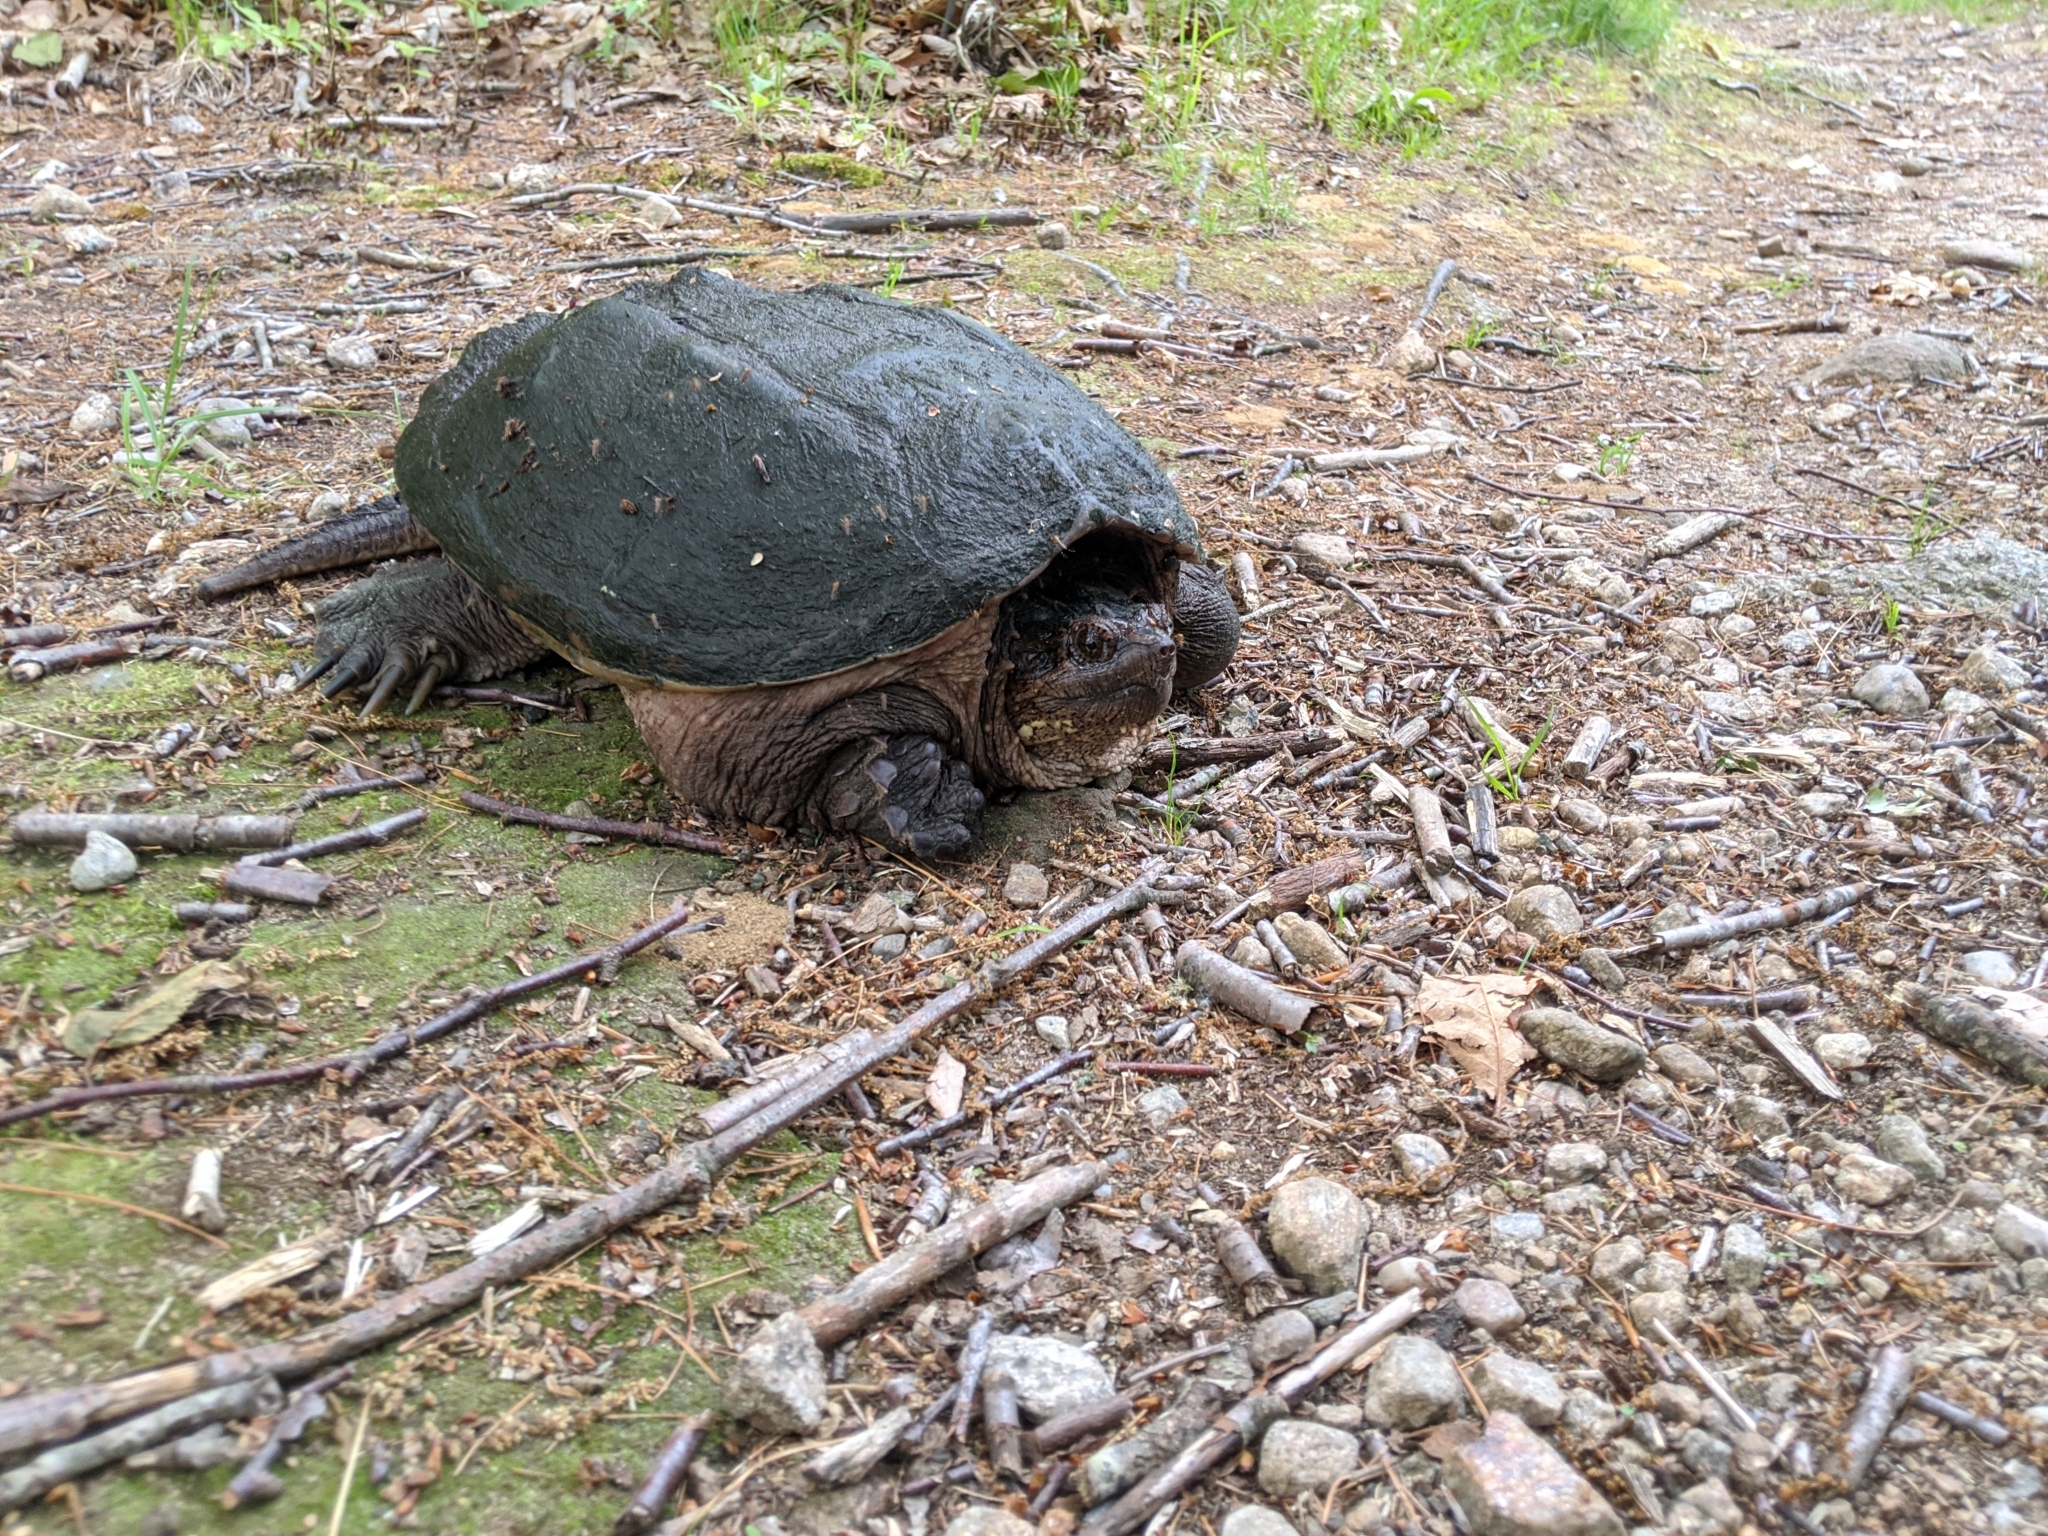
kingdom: Animalia
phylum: Chordata
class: Testudines
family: Chelydridae
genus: Chelydra
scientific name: Chelydra serpentina
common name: Common snapping turtle
